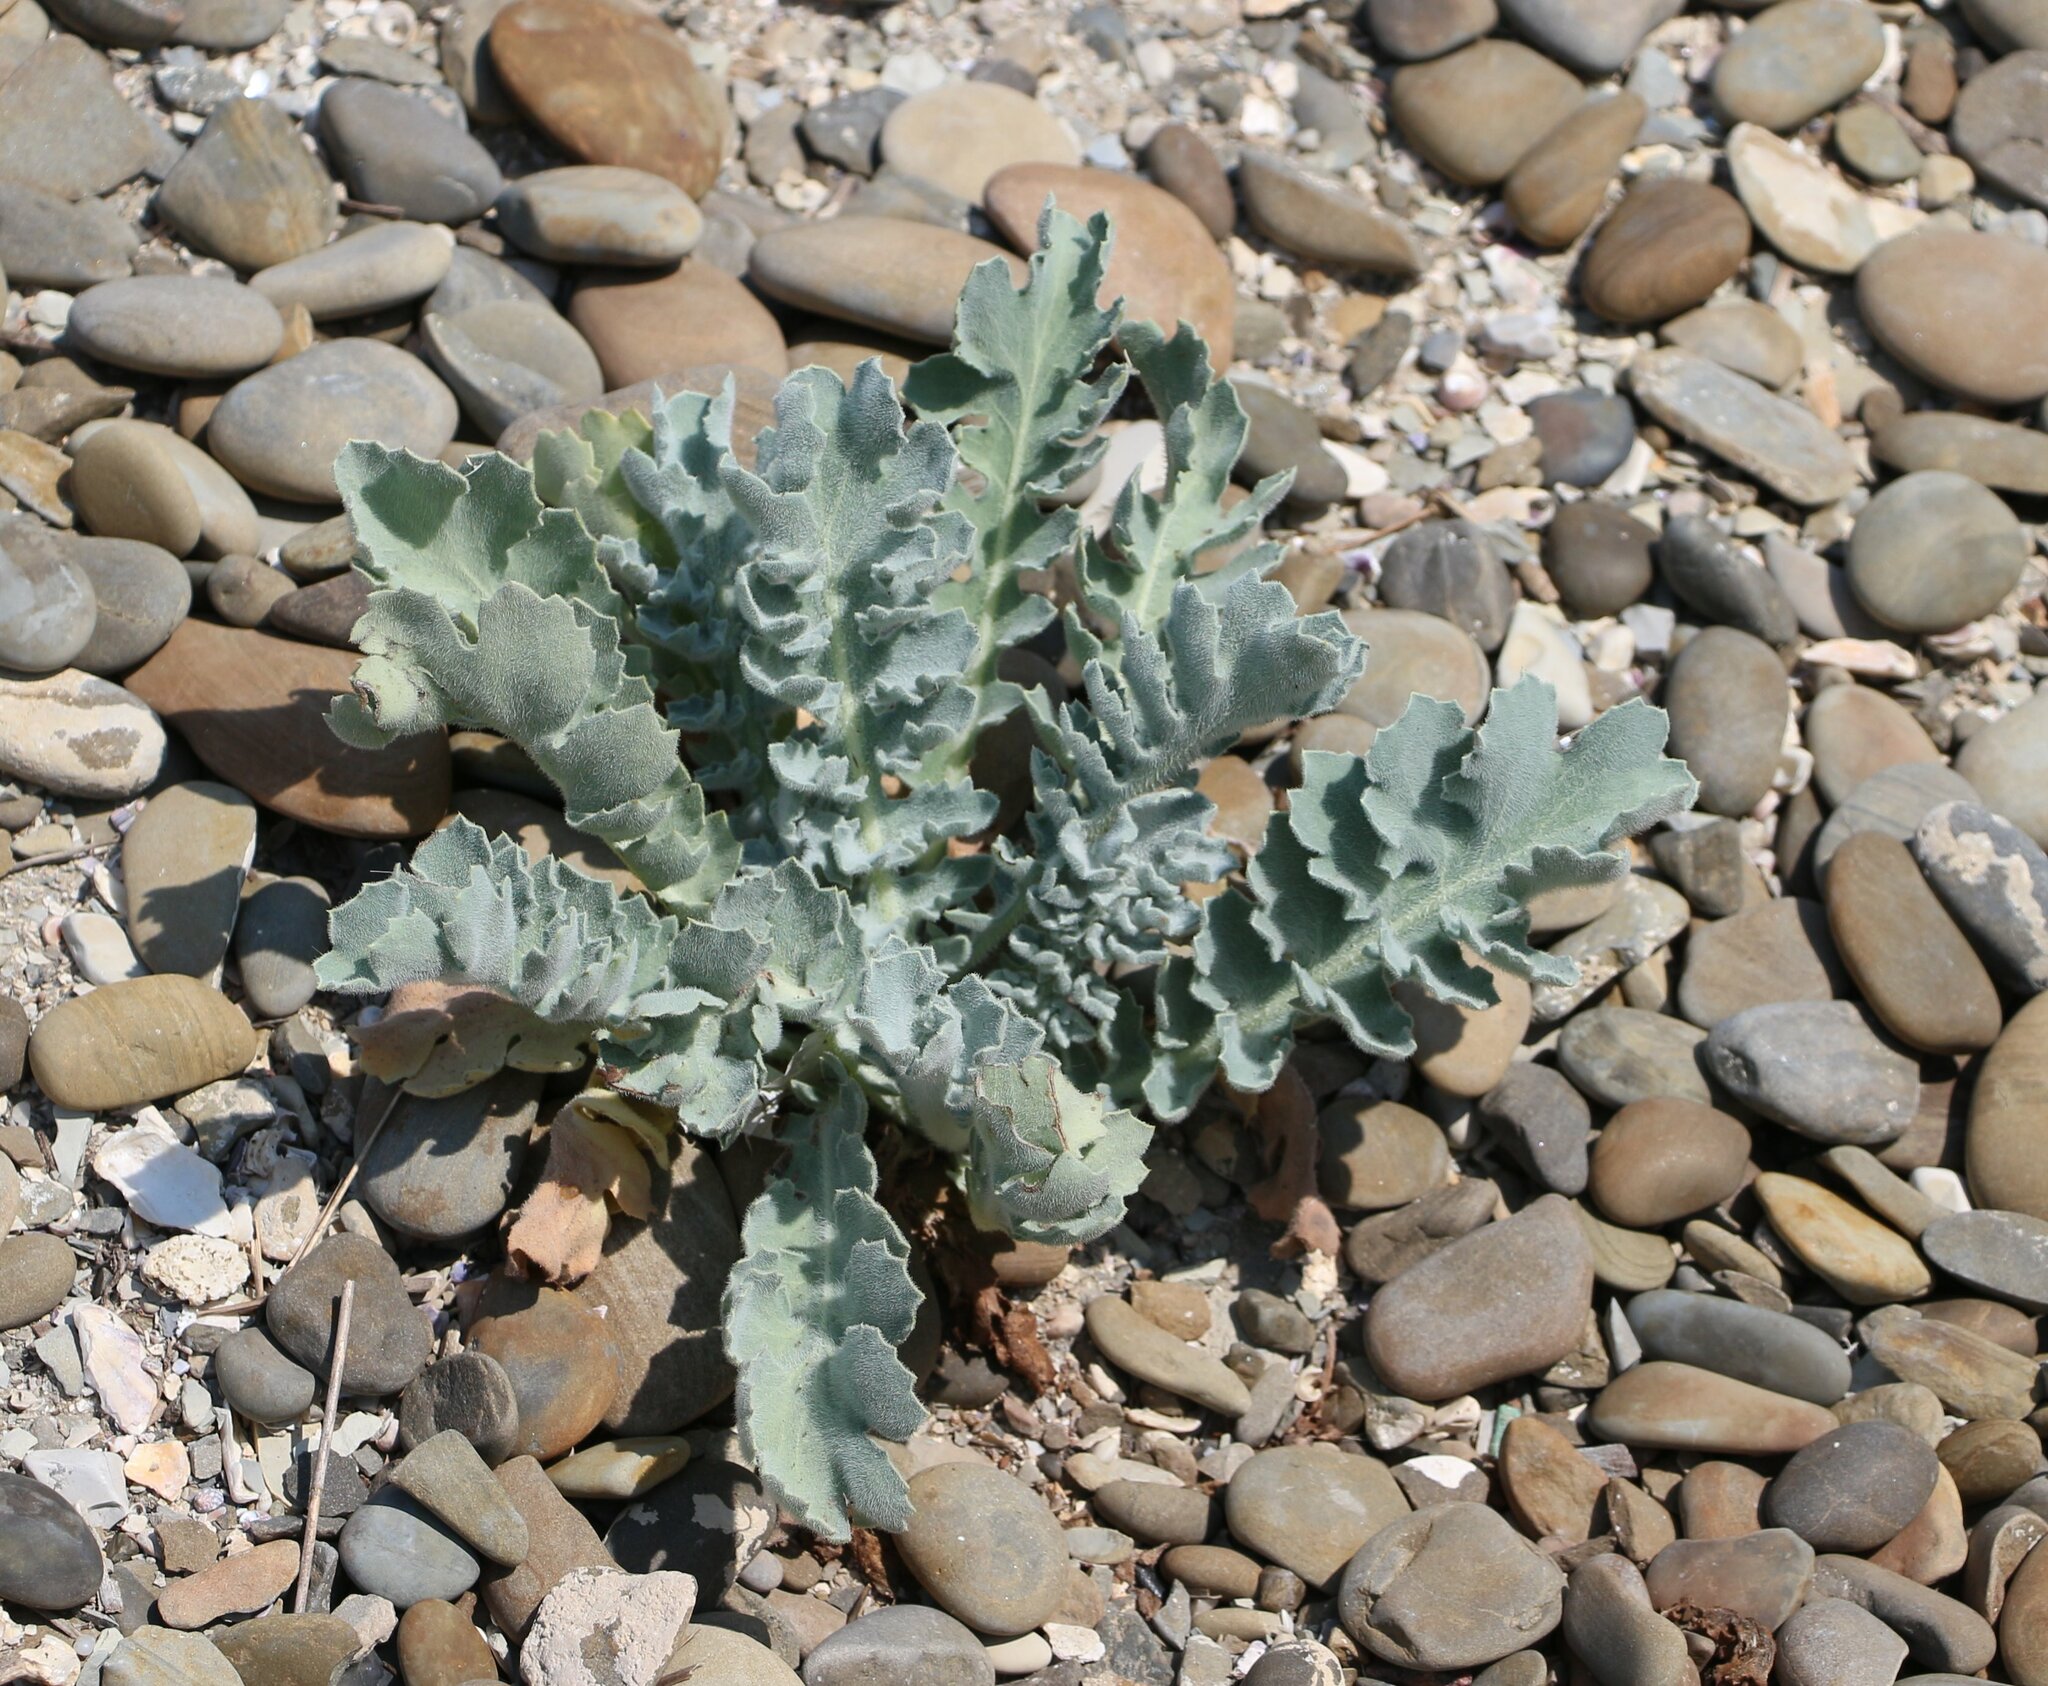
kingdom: Plantae
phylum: Tracheophyta
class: Magnoliopsida
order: Ranunculales
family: Papaveraceae
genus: Glaucium
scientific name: Glaucium flavum
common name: Yellow horned-poppy
